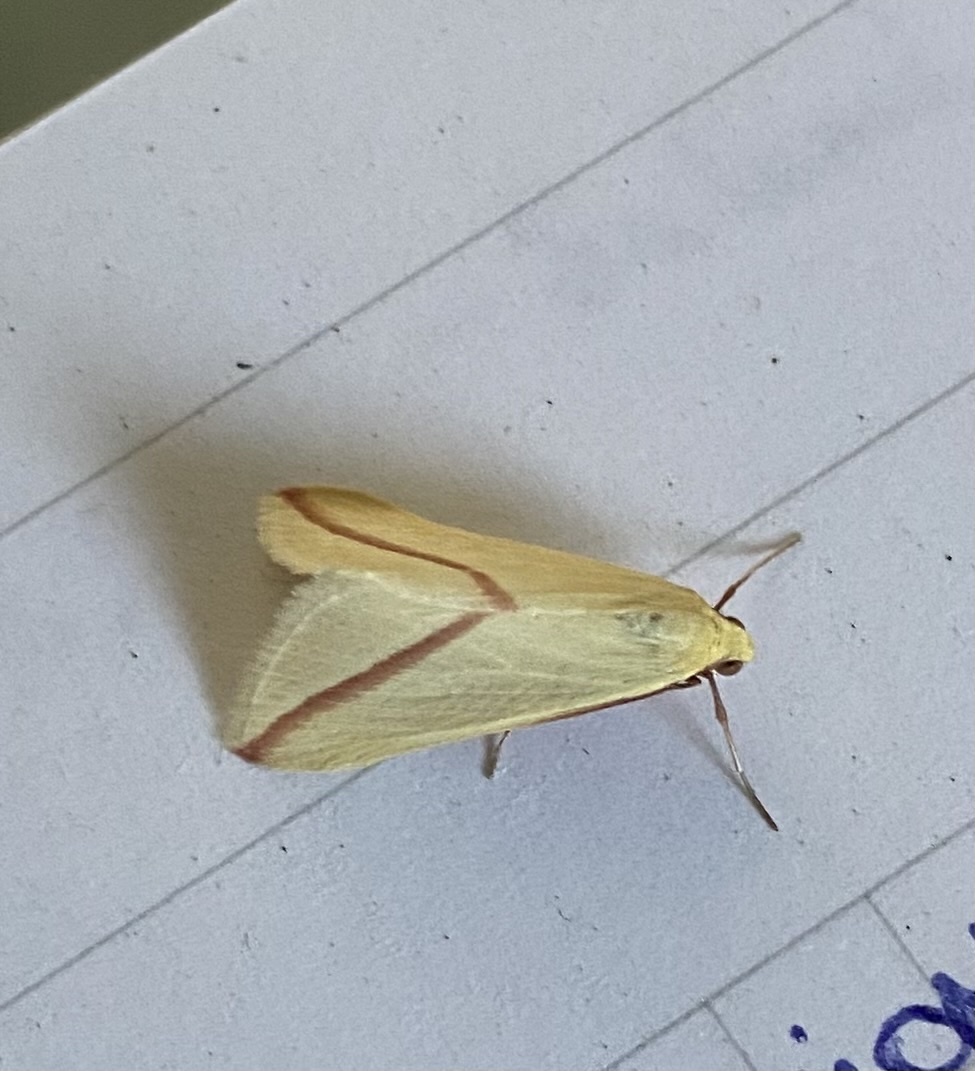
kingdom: Animalia
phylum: Arthropoda
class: Insecta
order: Lepidoptera
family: Geometridae
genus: Rhodometra
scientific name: Rhodometra sacraria
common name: Vestal
